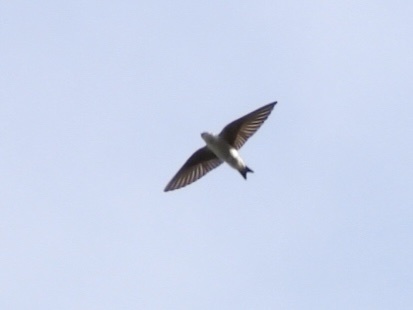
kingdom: Animalia
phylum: Chordata
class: Aves
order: Passeriformes
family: Hirundinidae
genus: Tachycineta
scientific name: Tachycineta thalassina
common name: Violet-green swallow
